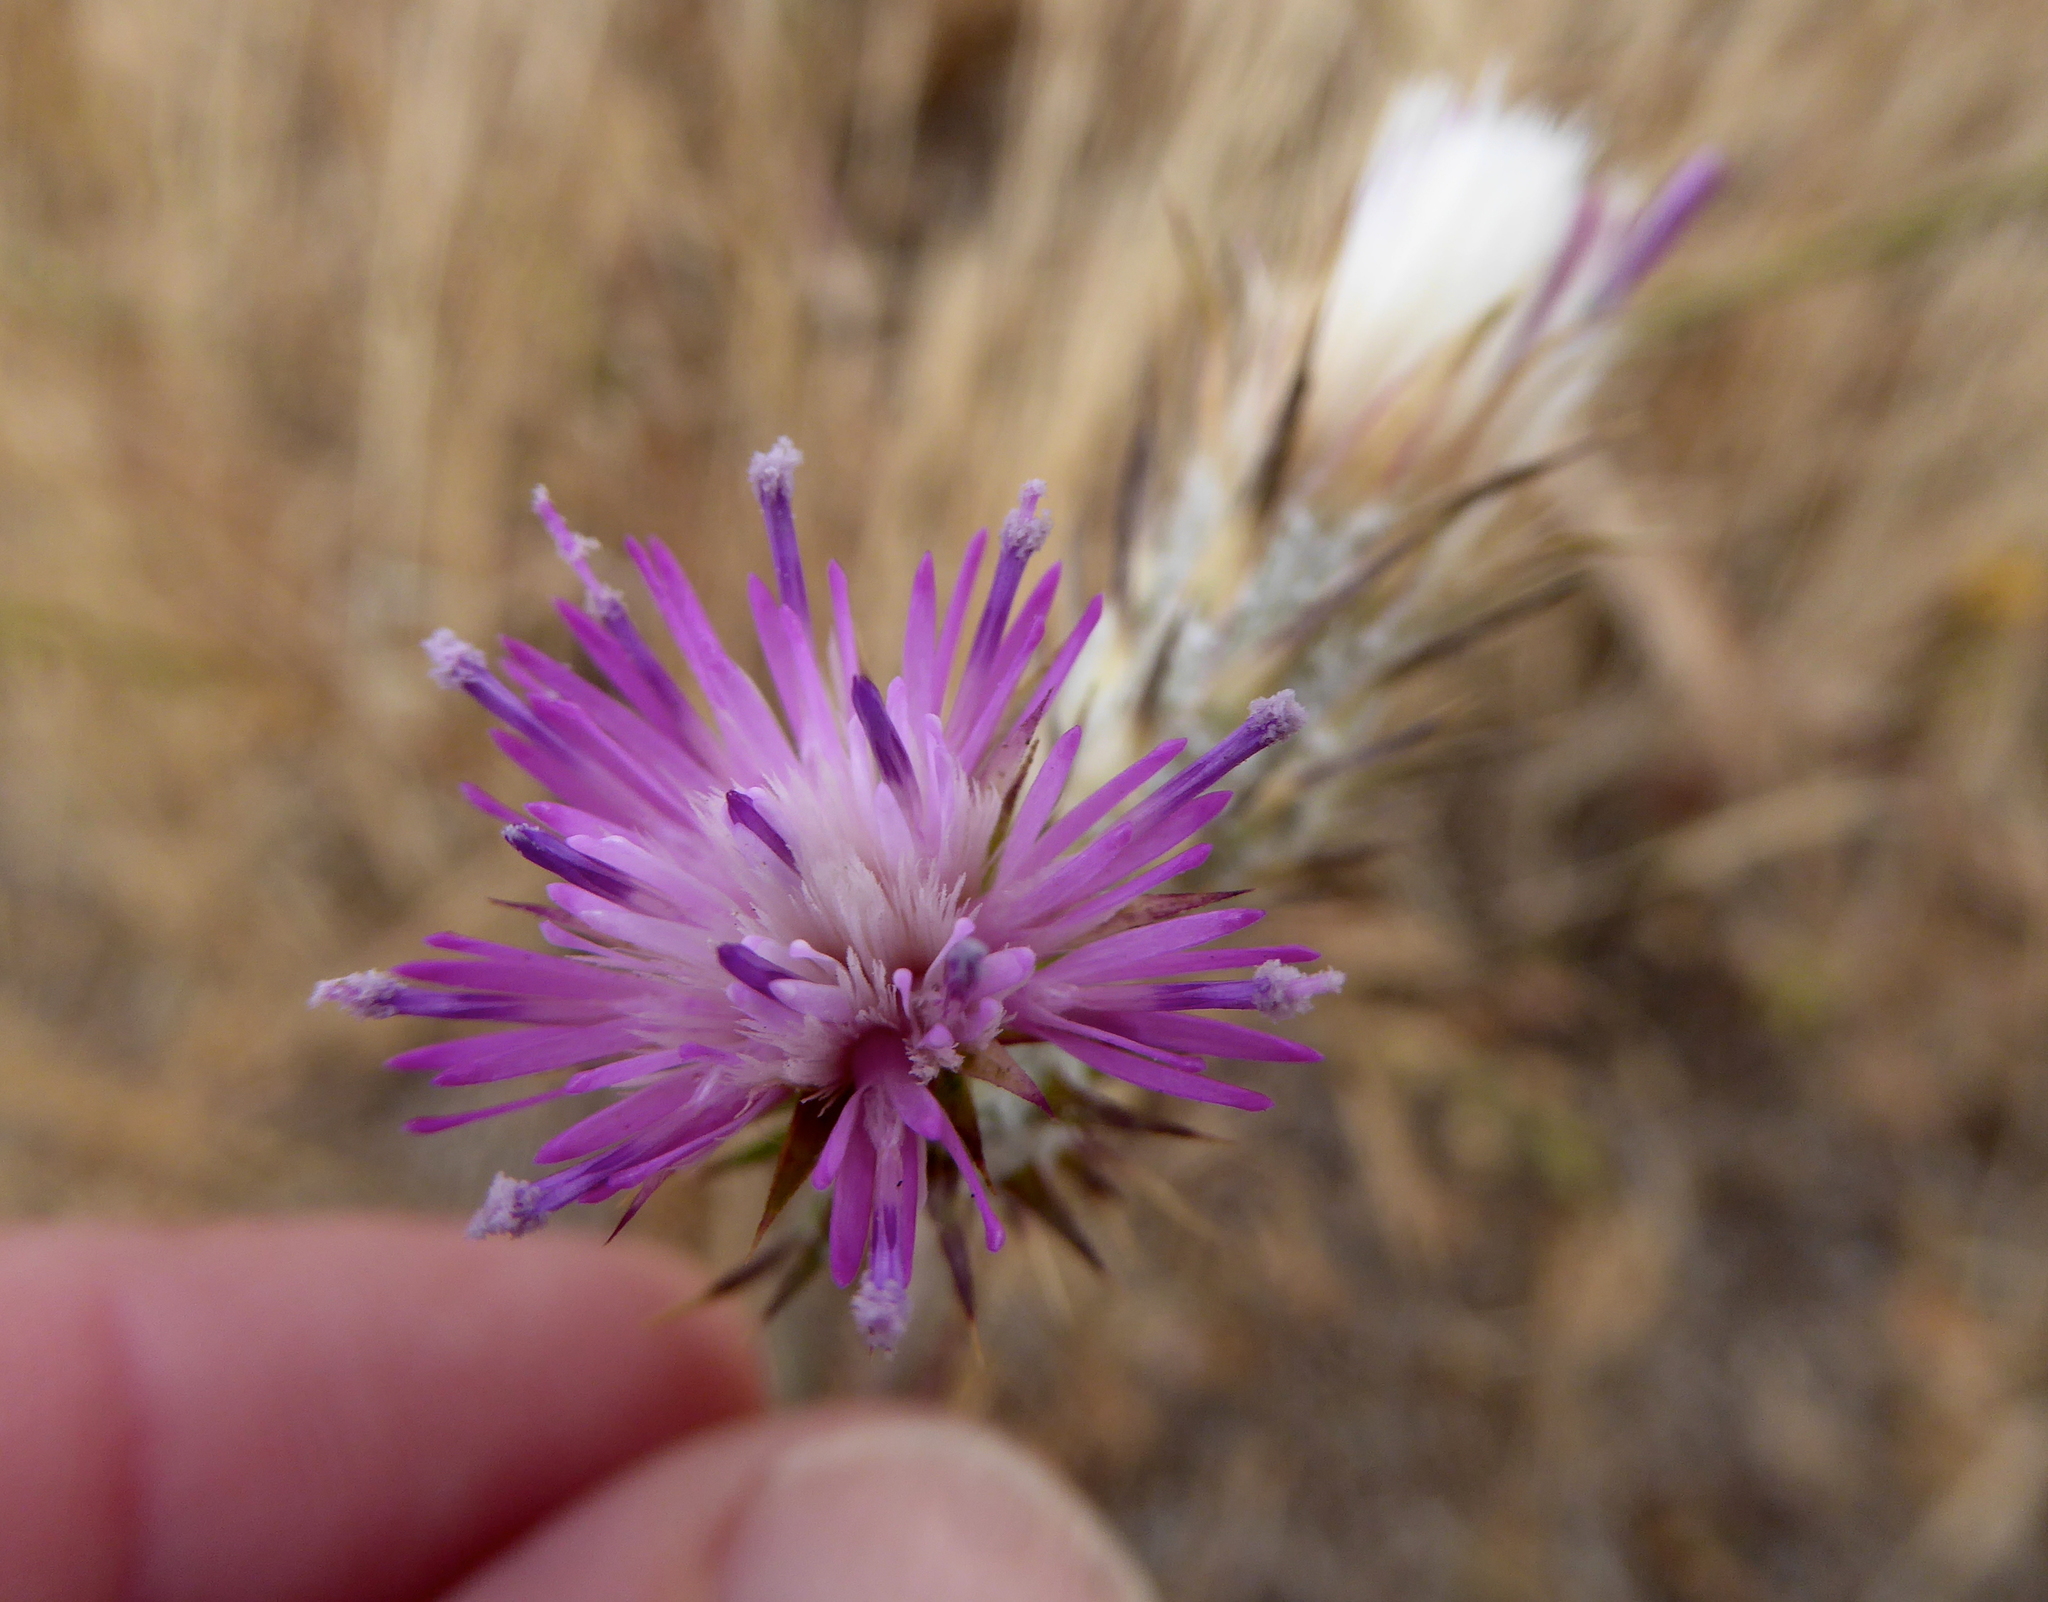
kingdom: Plantae
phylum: Tracheophyta
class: Magnoliopsida
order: Asterales
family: Asteraceae
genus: Carduus
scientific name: Carduus pycnocephalus
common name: Plymouth thistle
